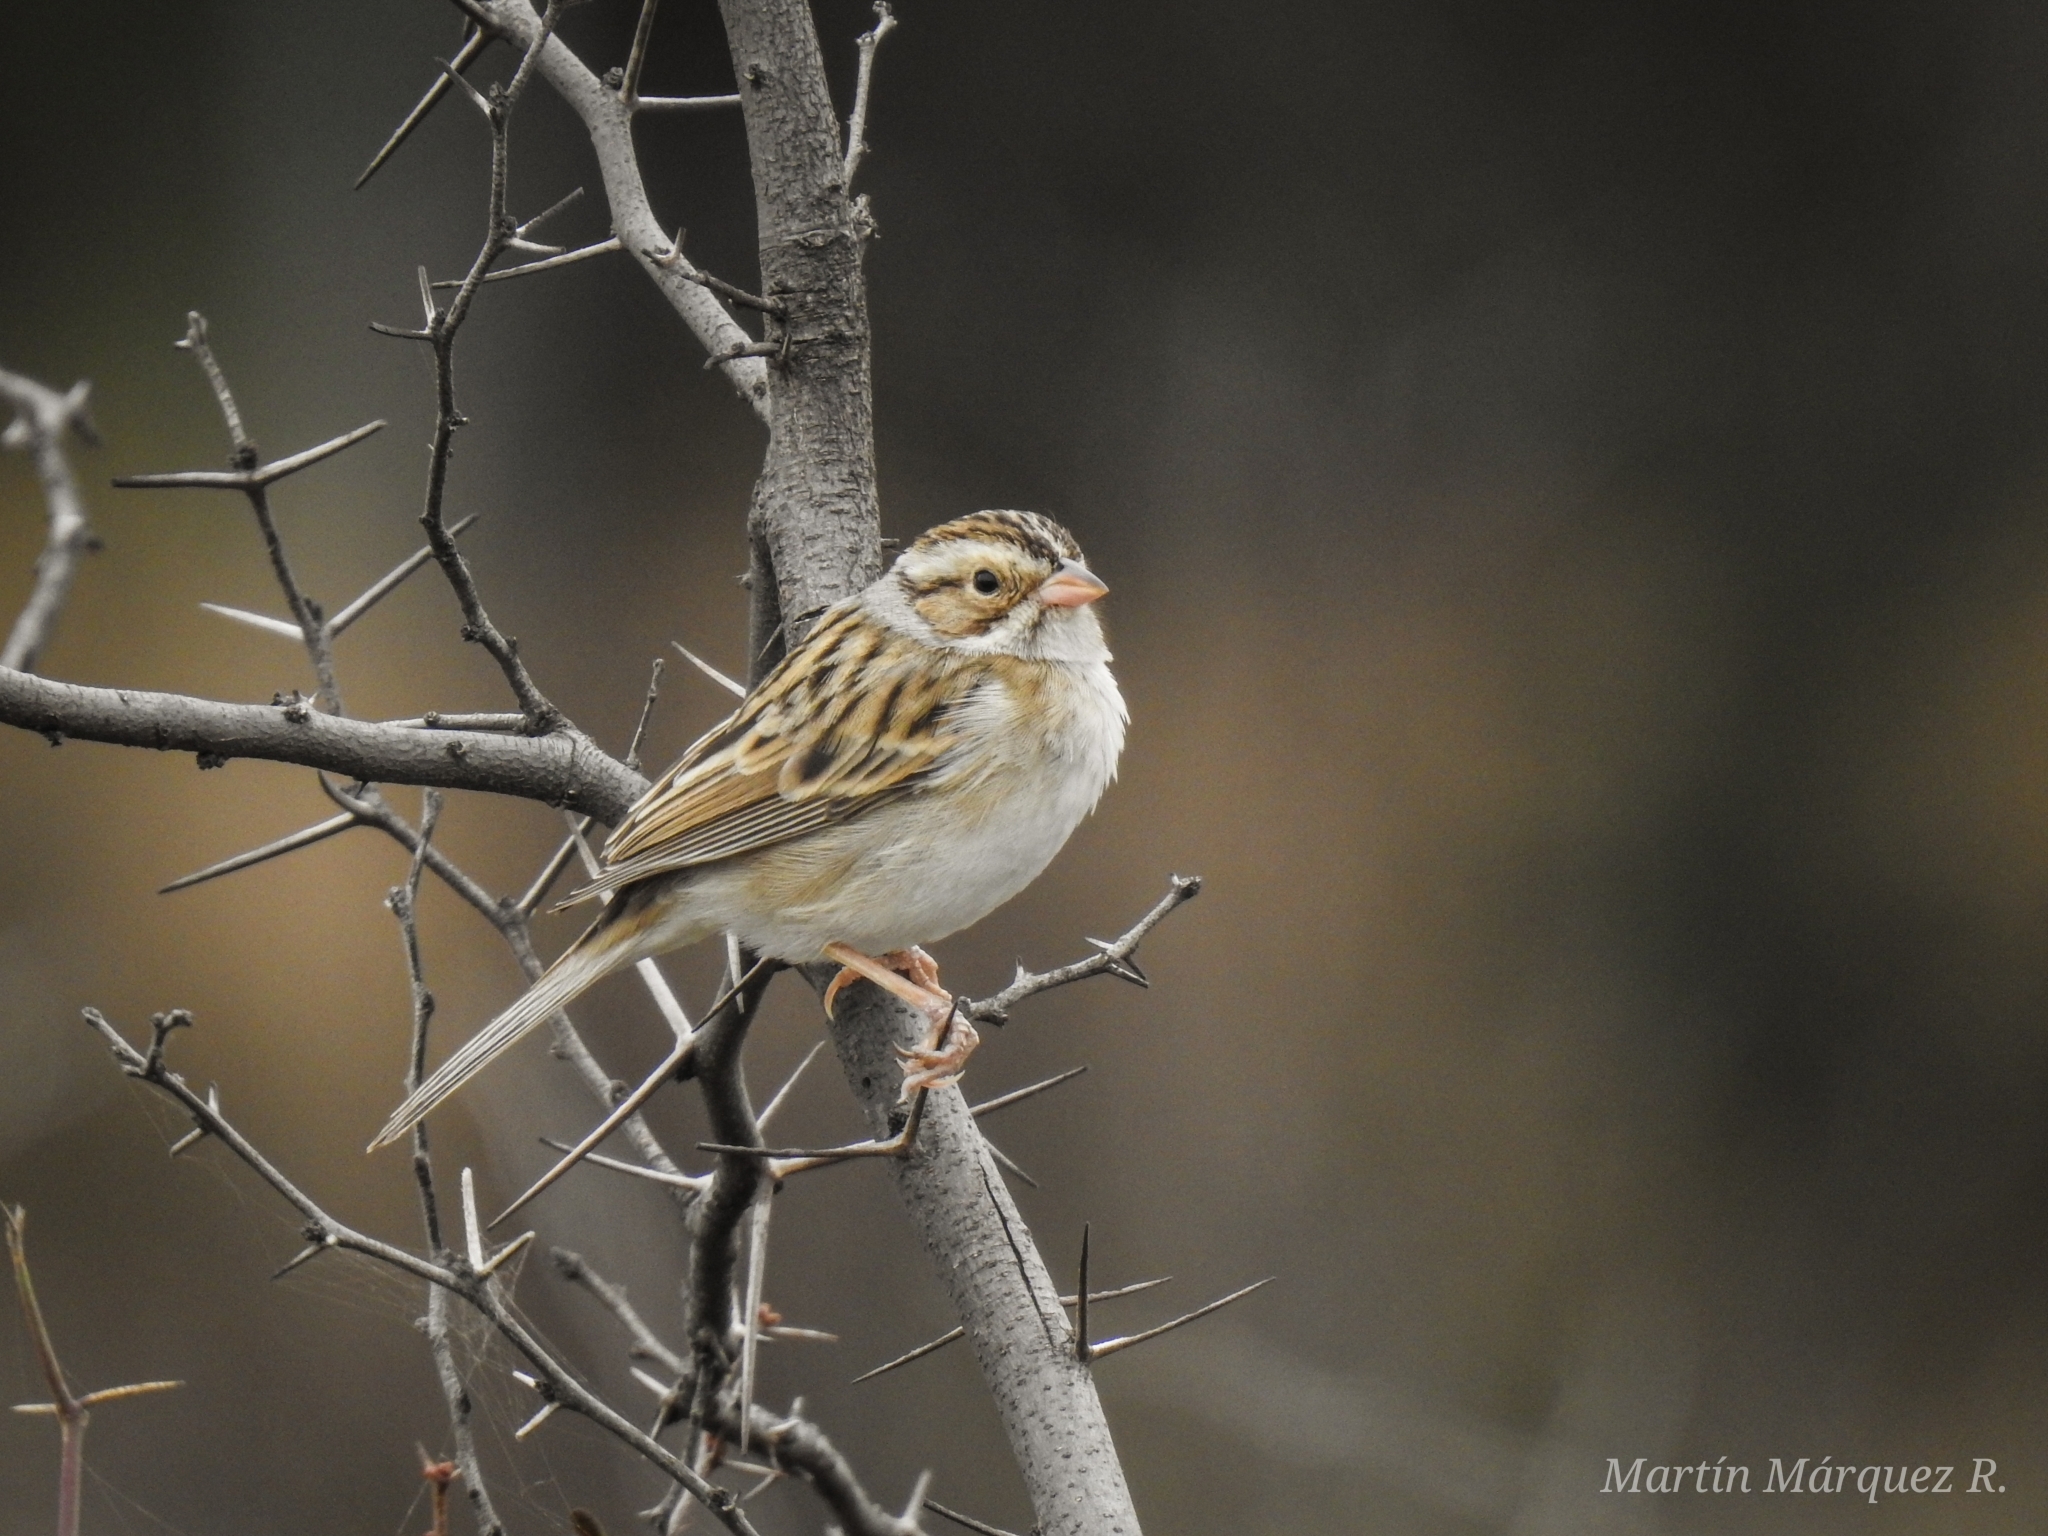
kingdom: Animalia
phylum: Chordata
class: Aves
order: Passeriformes
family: Passerellidae
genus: Spizella
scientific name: Spizella pallida
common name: Clay-colored sparrow
